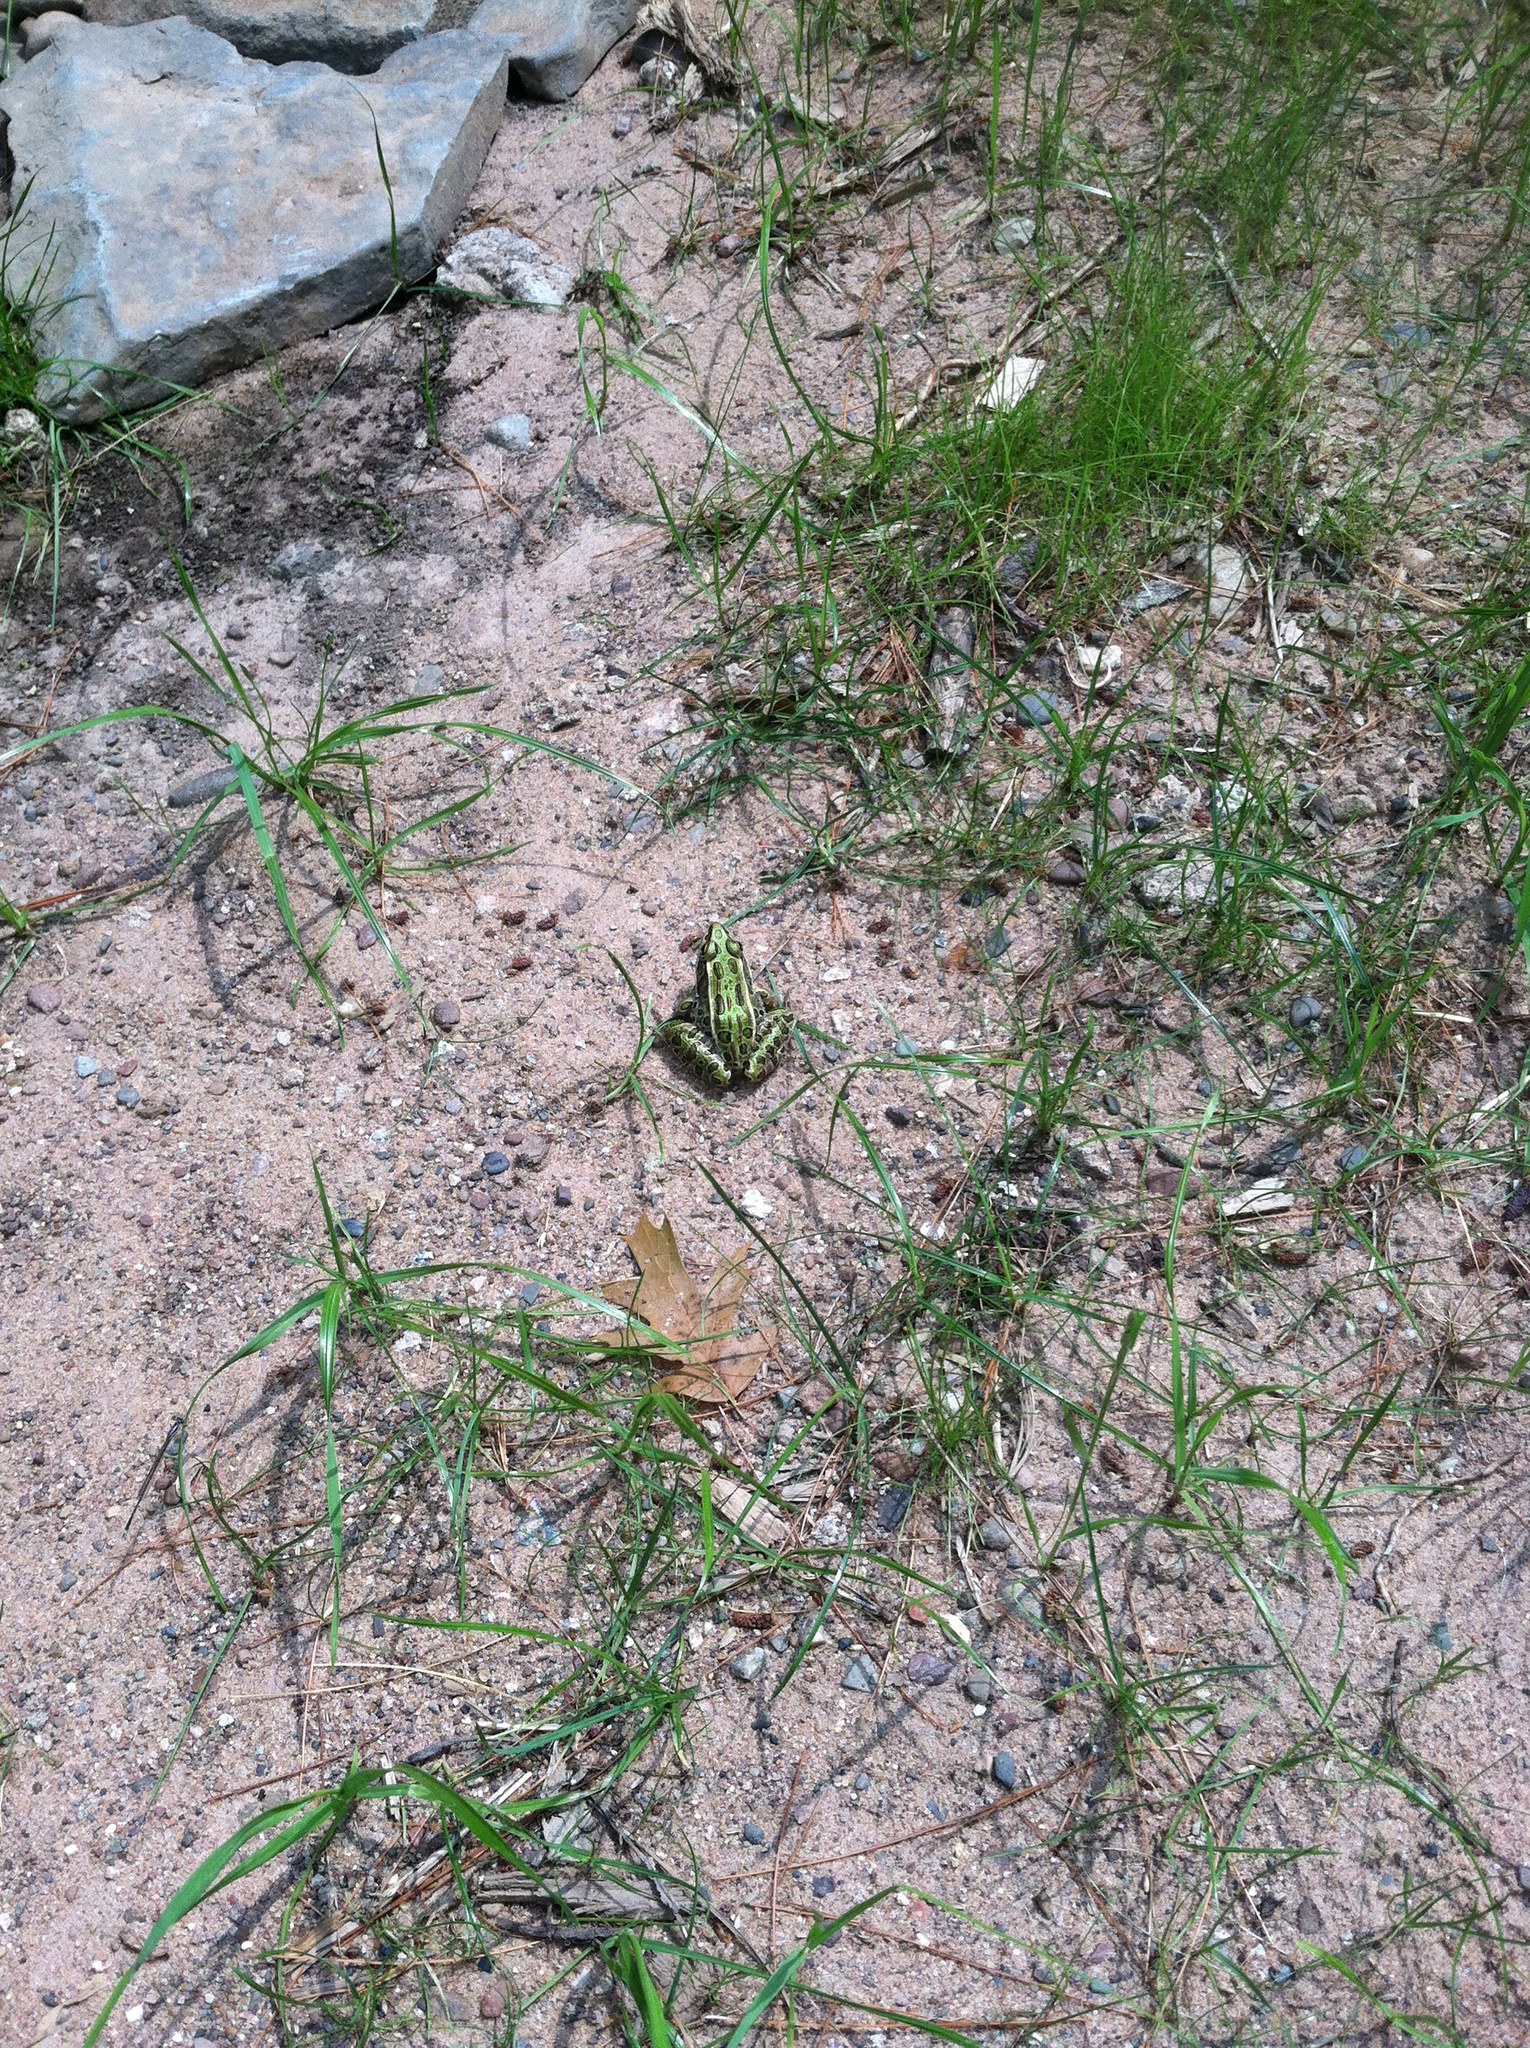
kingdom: Animalia
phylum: Chordata
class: Amphibia
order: Anura
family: Ranidae
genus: Lithobates
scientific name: Lithobates pipiens
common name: Northern leopard frog
